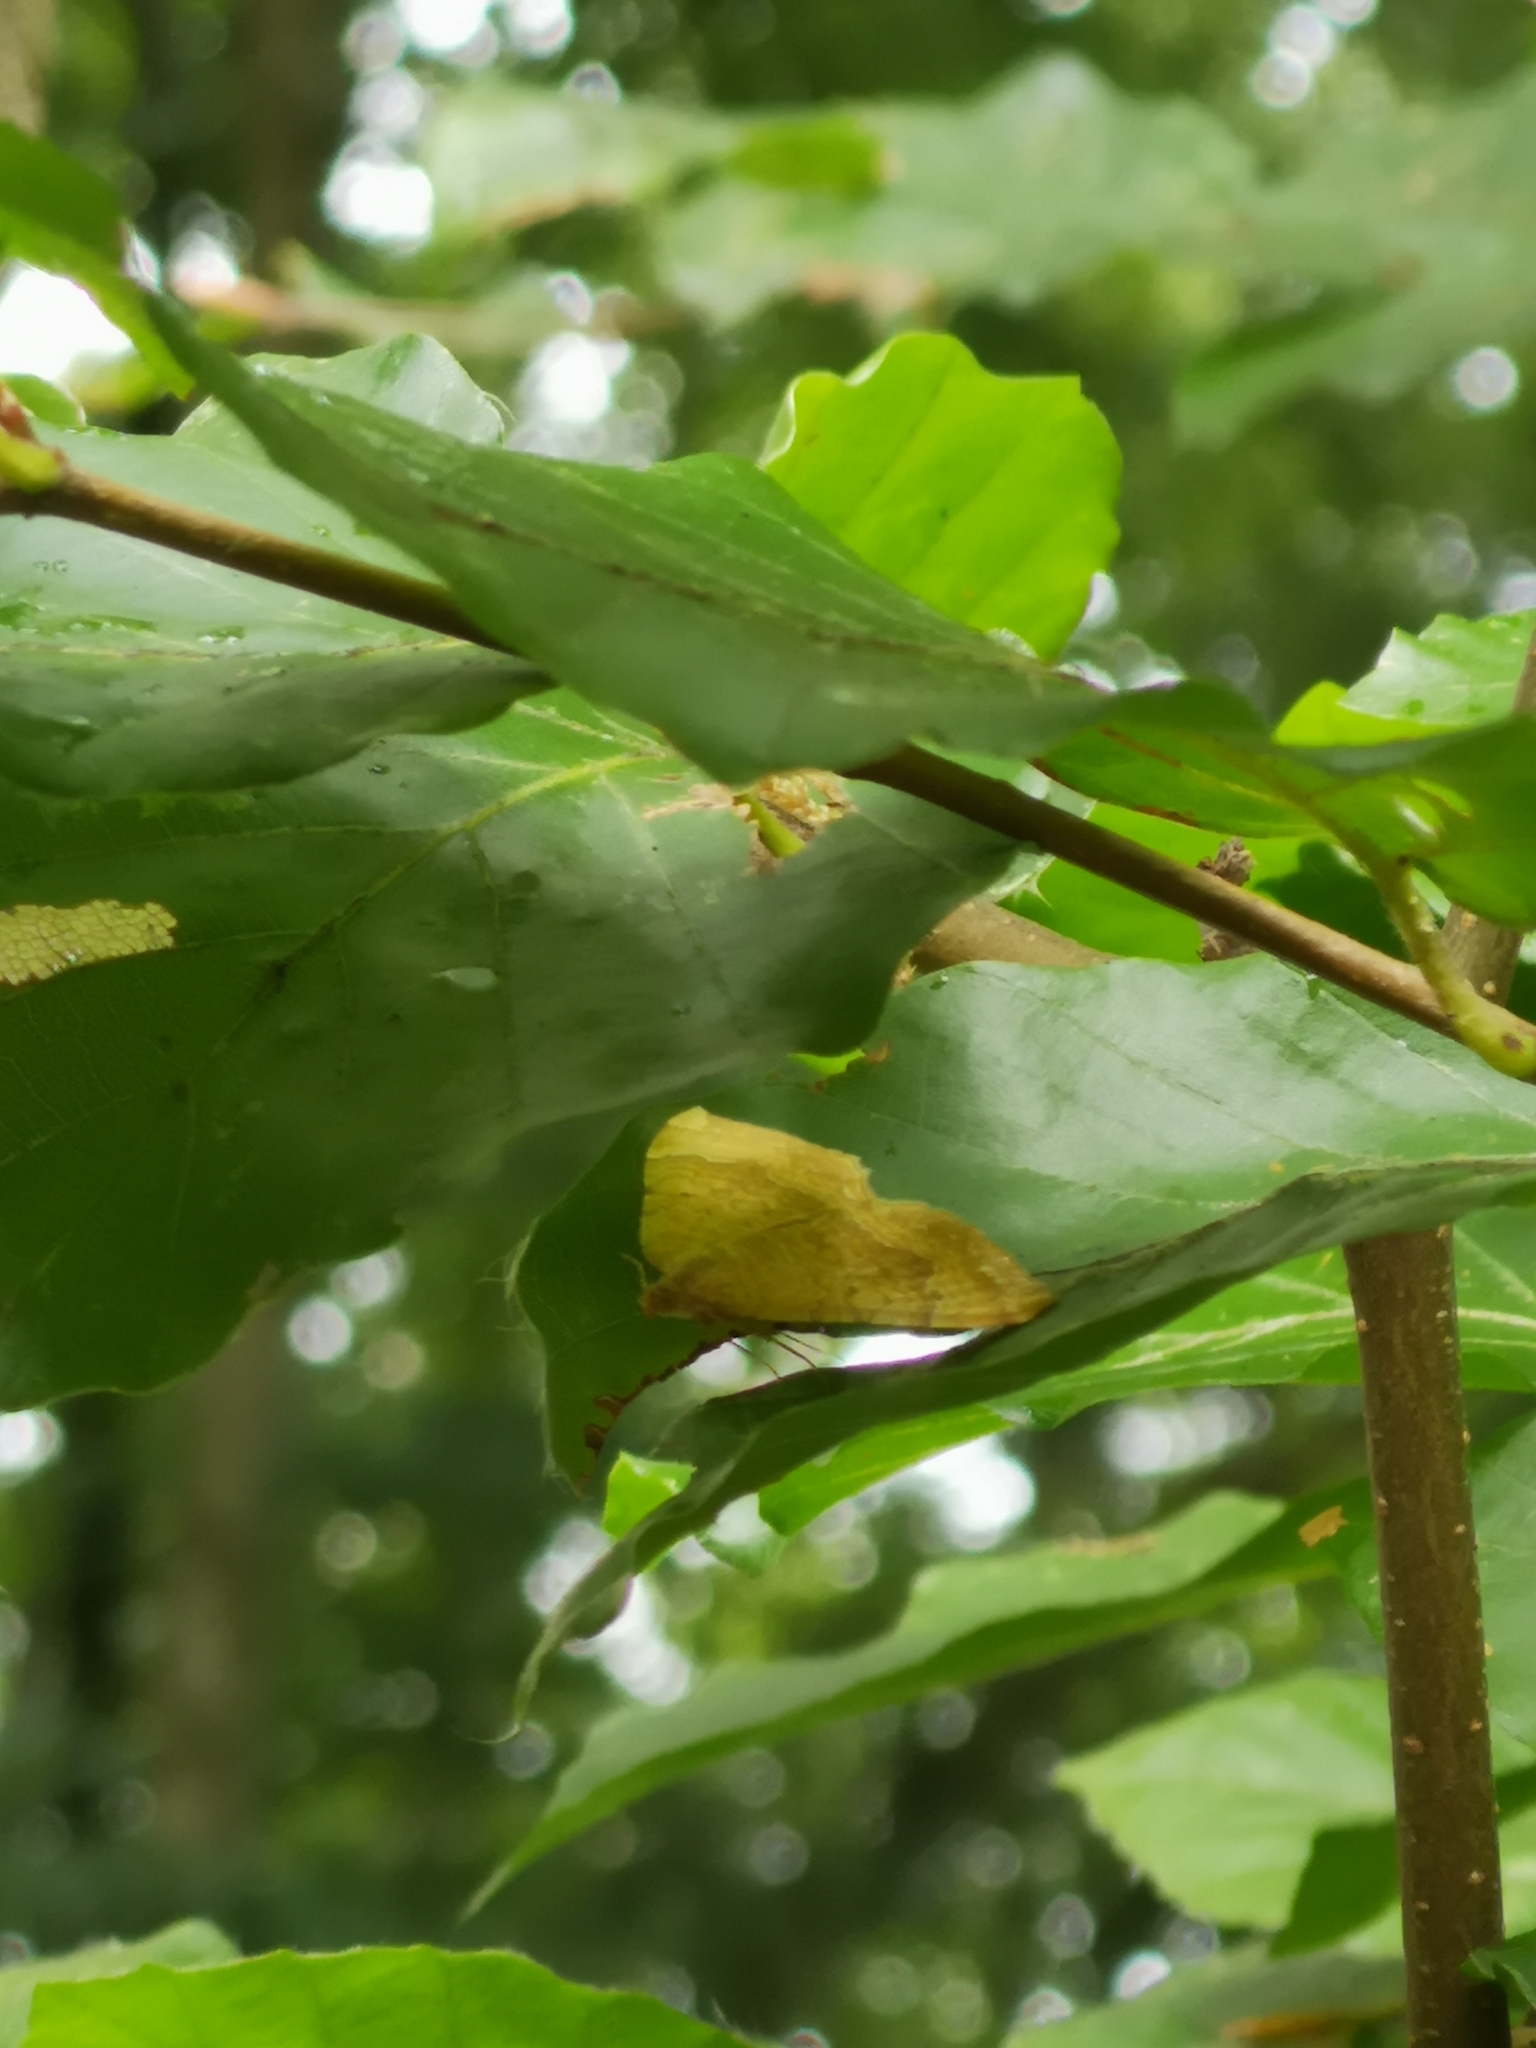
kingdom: Animalia
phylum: Arthropoda
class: Insecta
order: Lepidoptera
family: Geometridae
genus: Camptogramma
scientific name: Camptogramma bilineata
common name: Yellow shell
